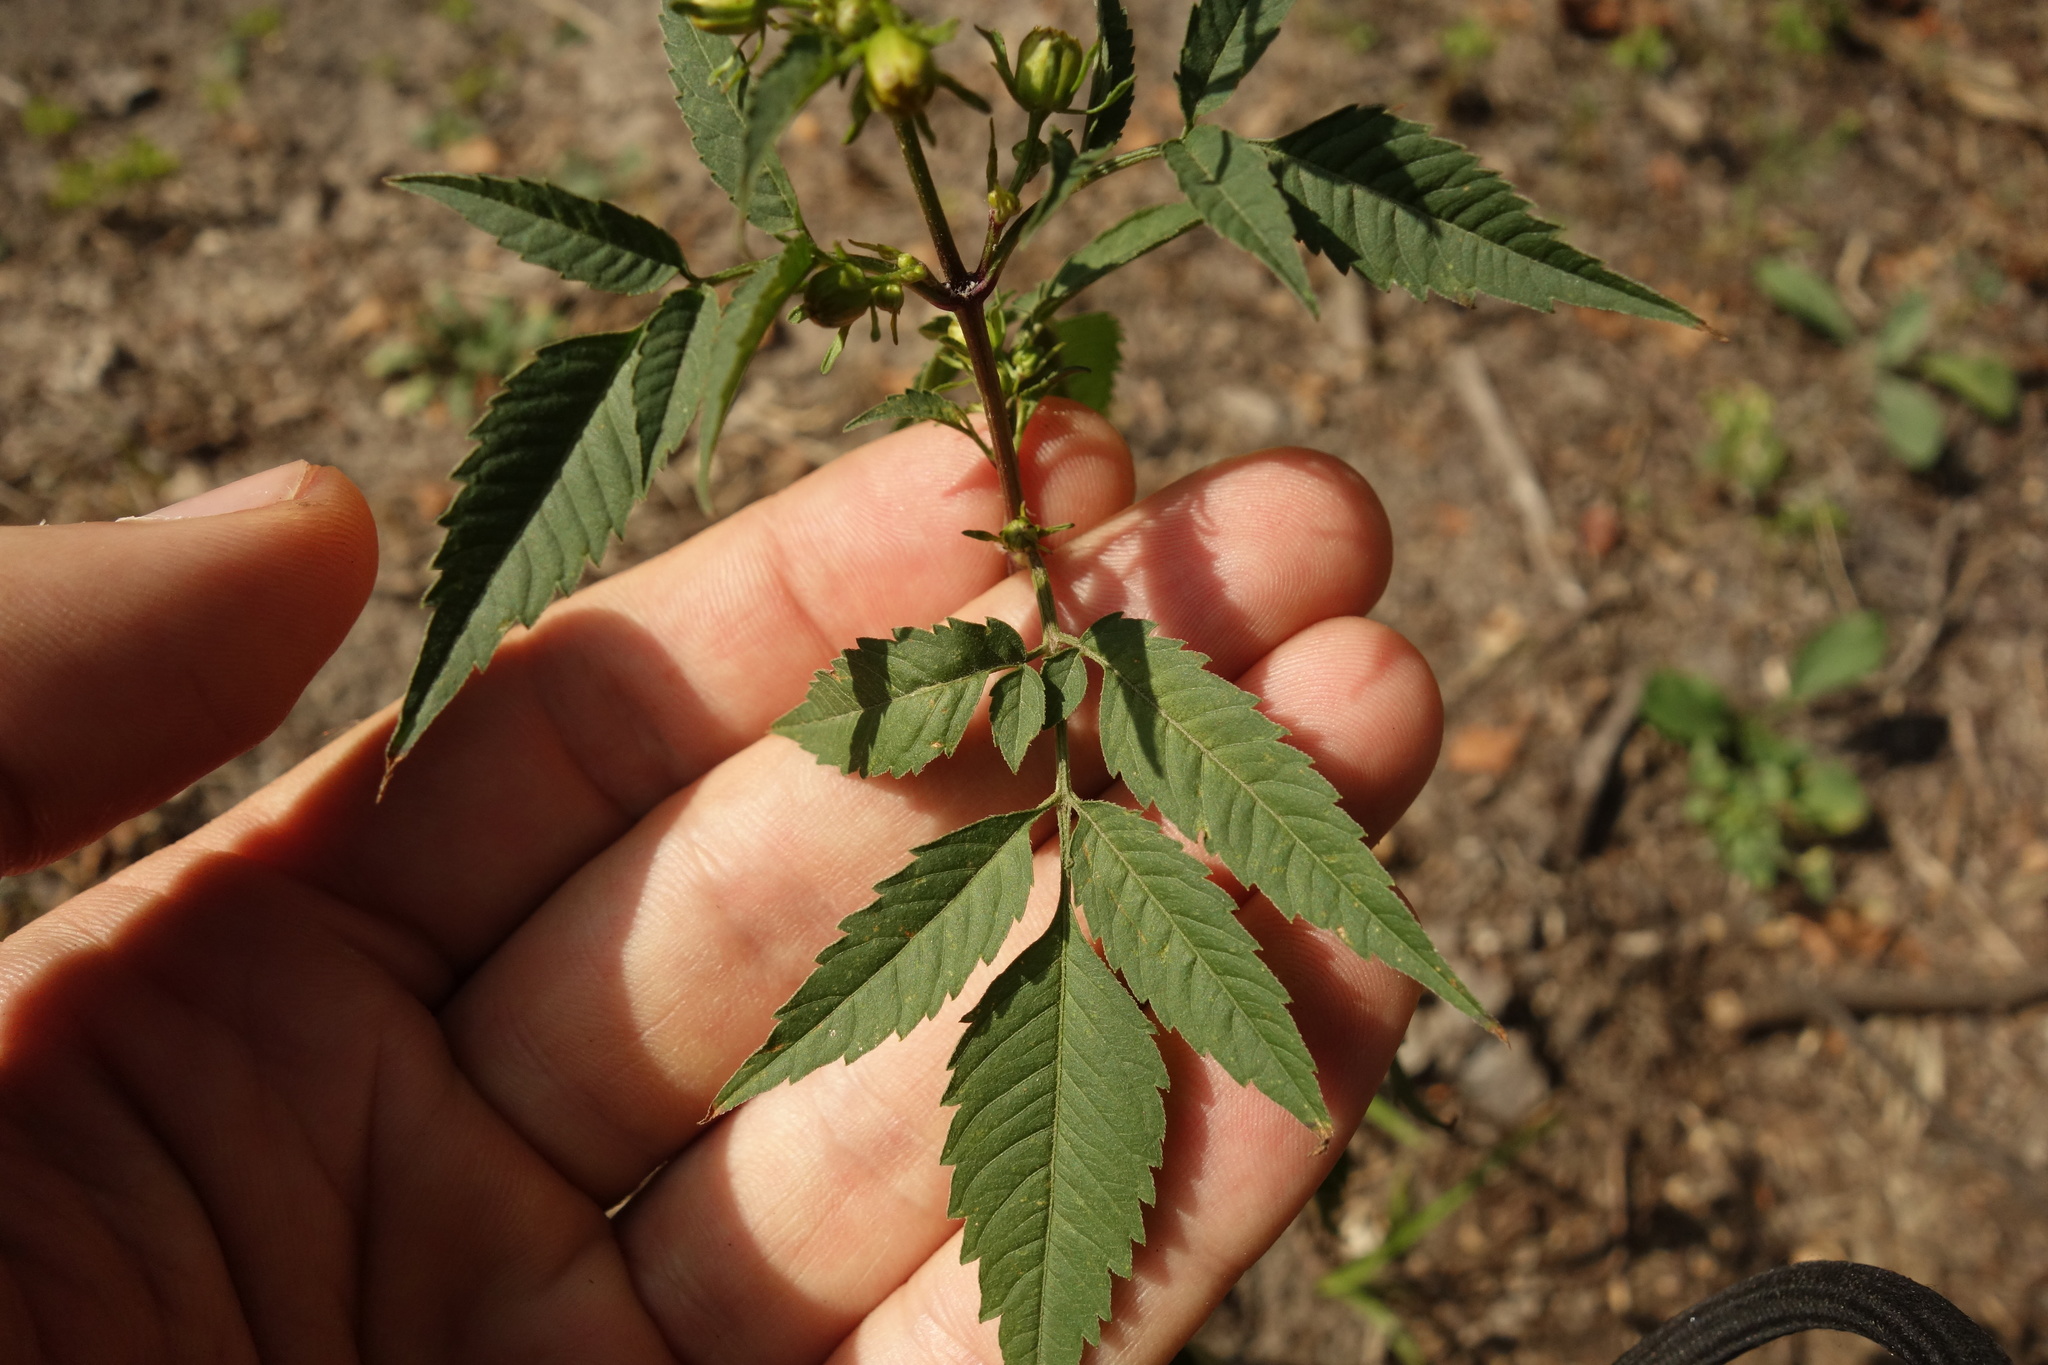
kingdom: Plantae
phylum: Tracheophyta
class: Magnoliopsida
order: Asterales
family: Asteraceae
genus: Bidens
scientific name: Bidens frondosa
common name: Beggarticks
